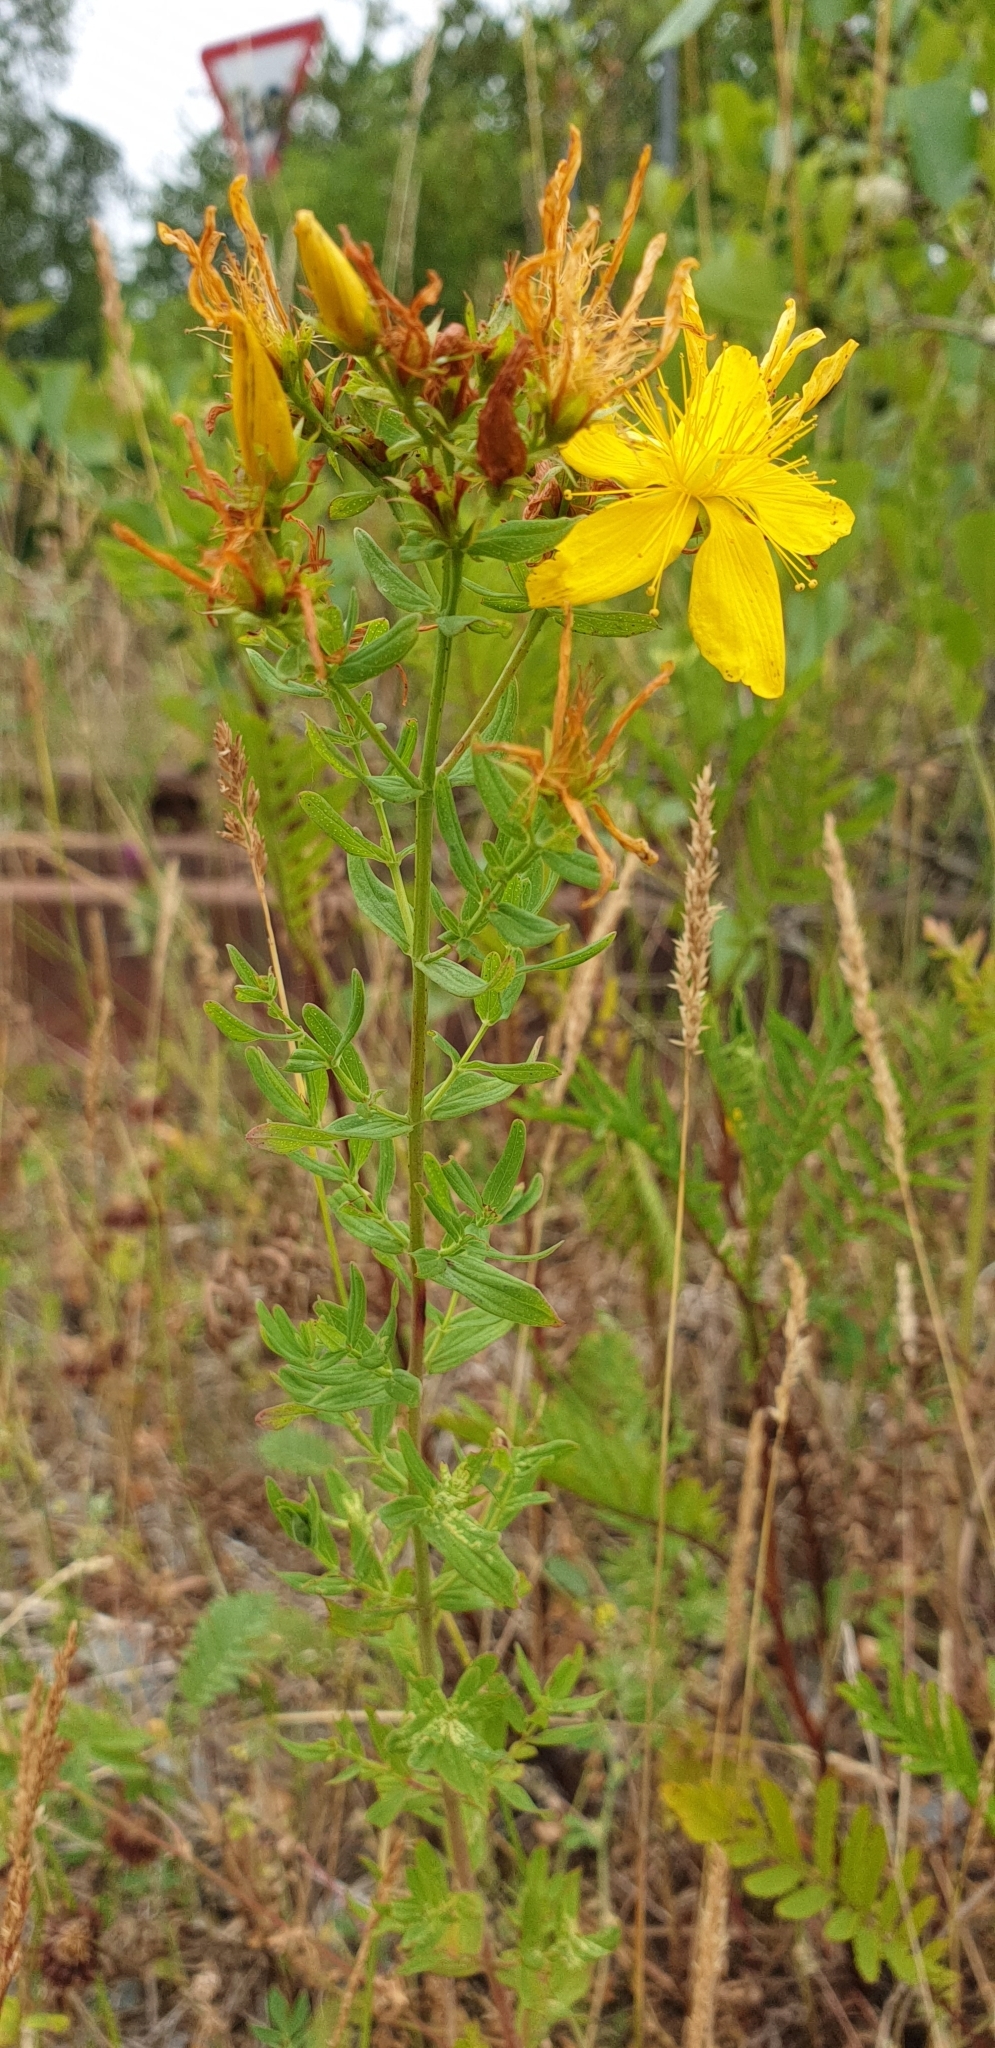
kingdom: Plantae
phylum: Tracheophyta
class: Magnoliopsida
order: Malpighiales
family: Hypericaceae
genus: Hypericum
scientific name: Hypericum perforatum
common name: Common st. johnswort
